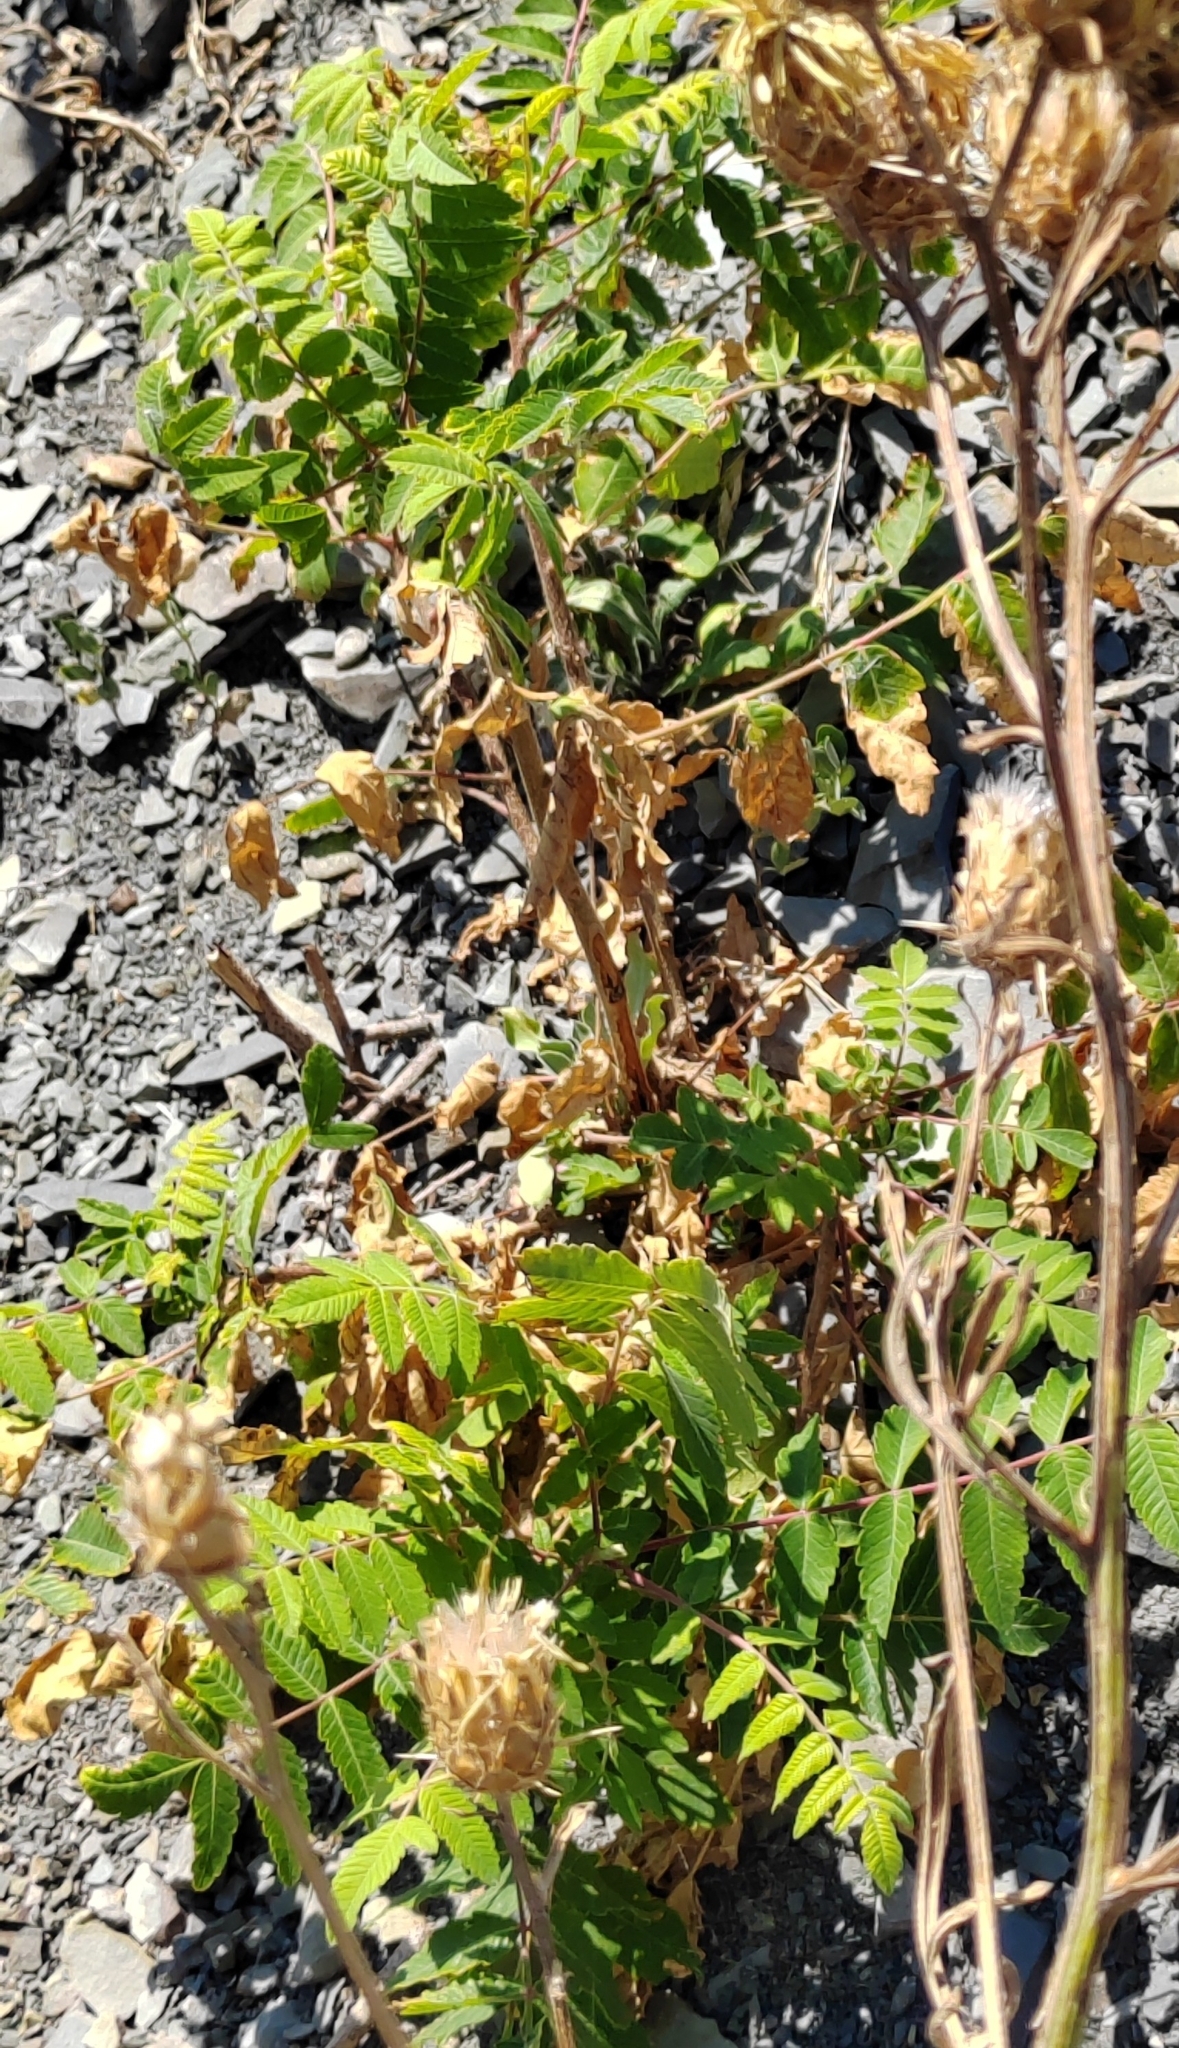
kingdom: Plantae
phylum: Tracheophyta
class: Magnoliopsida
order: Sapindales
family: Anacardiaceae
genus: Rhus
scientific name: Rhus coriaria
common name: Tanner's sumach
